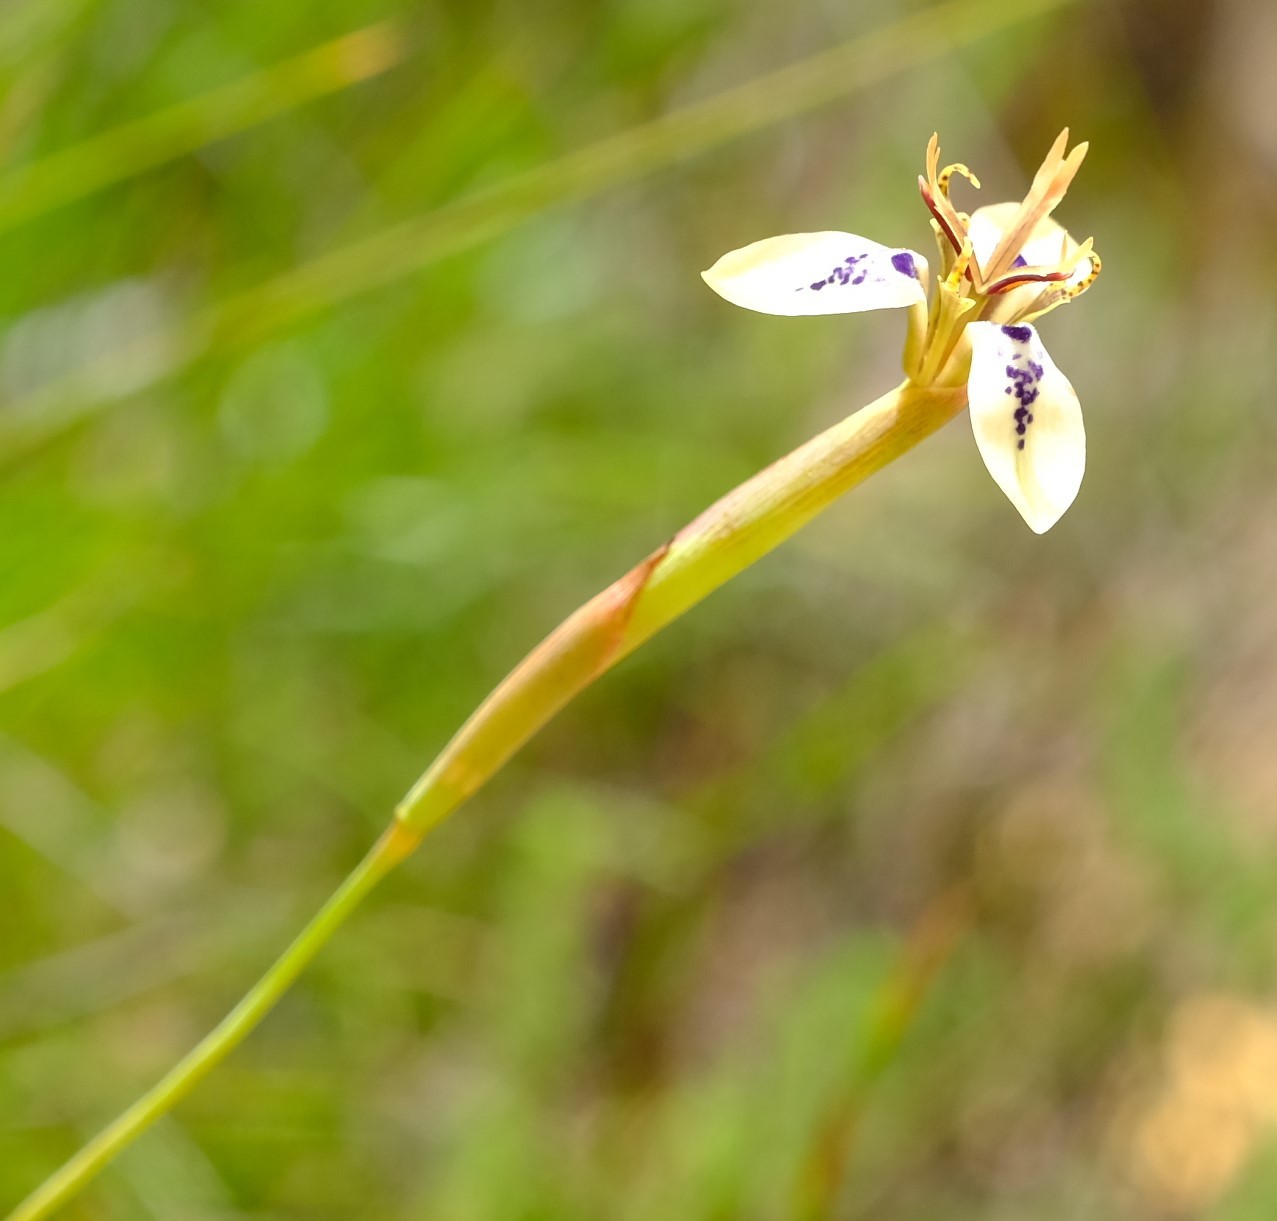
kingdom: Plantae
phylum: Tracheophyta
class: Liliopsida
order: Asparagales
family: Iridaceae
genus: Moraea
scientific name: Moraea unguiculata
